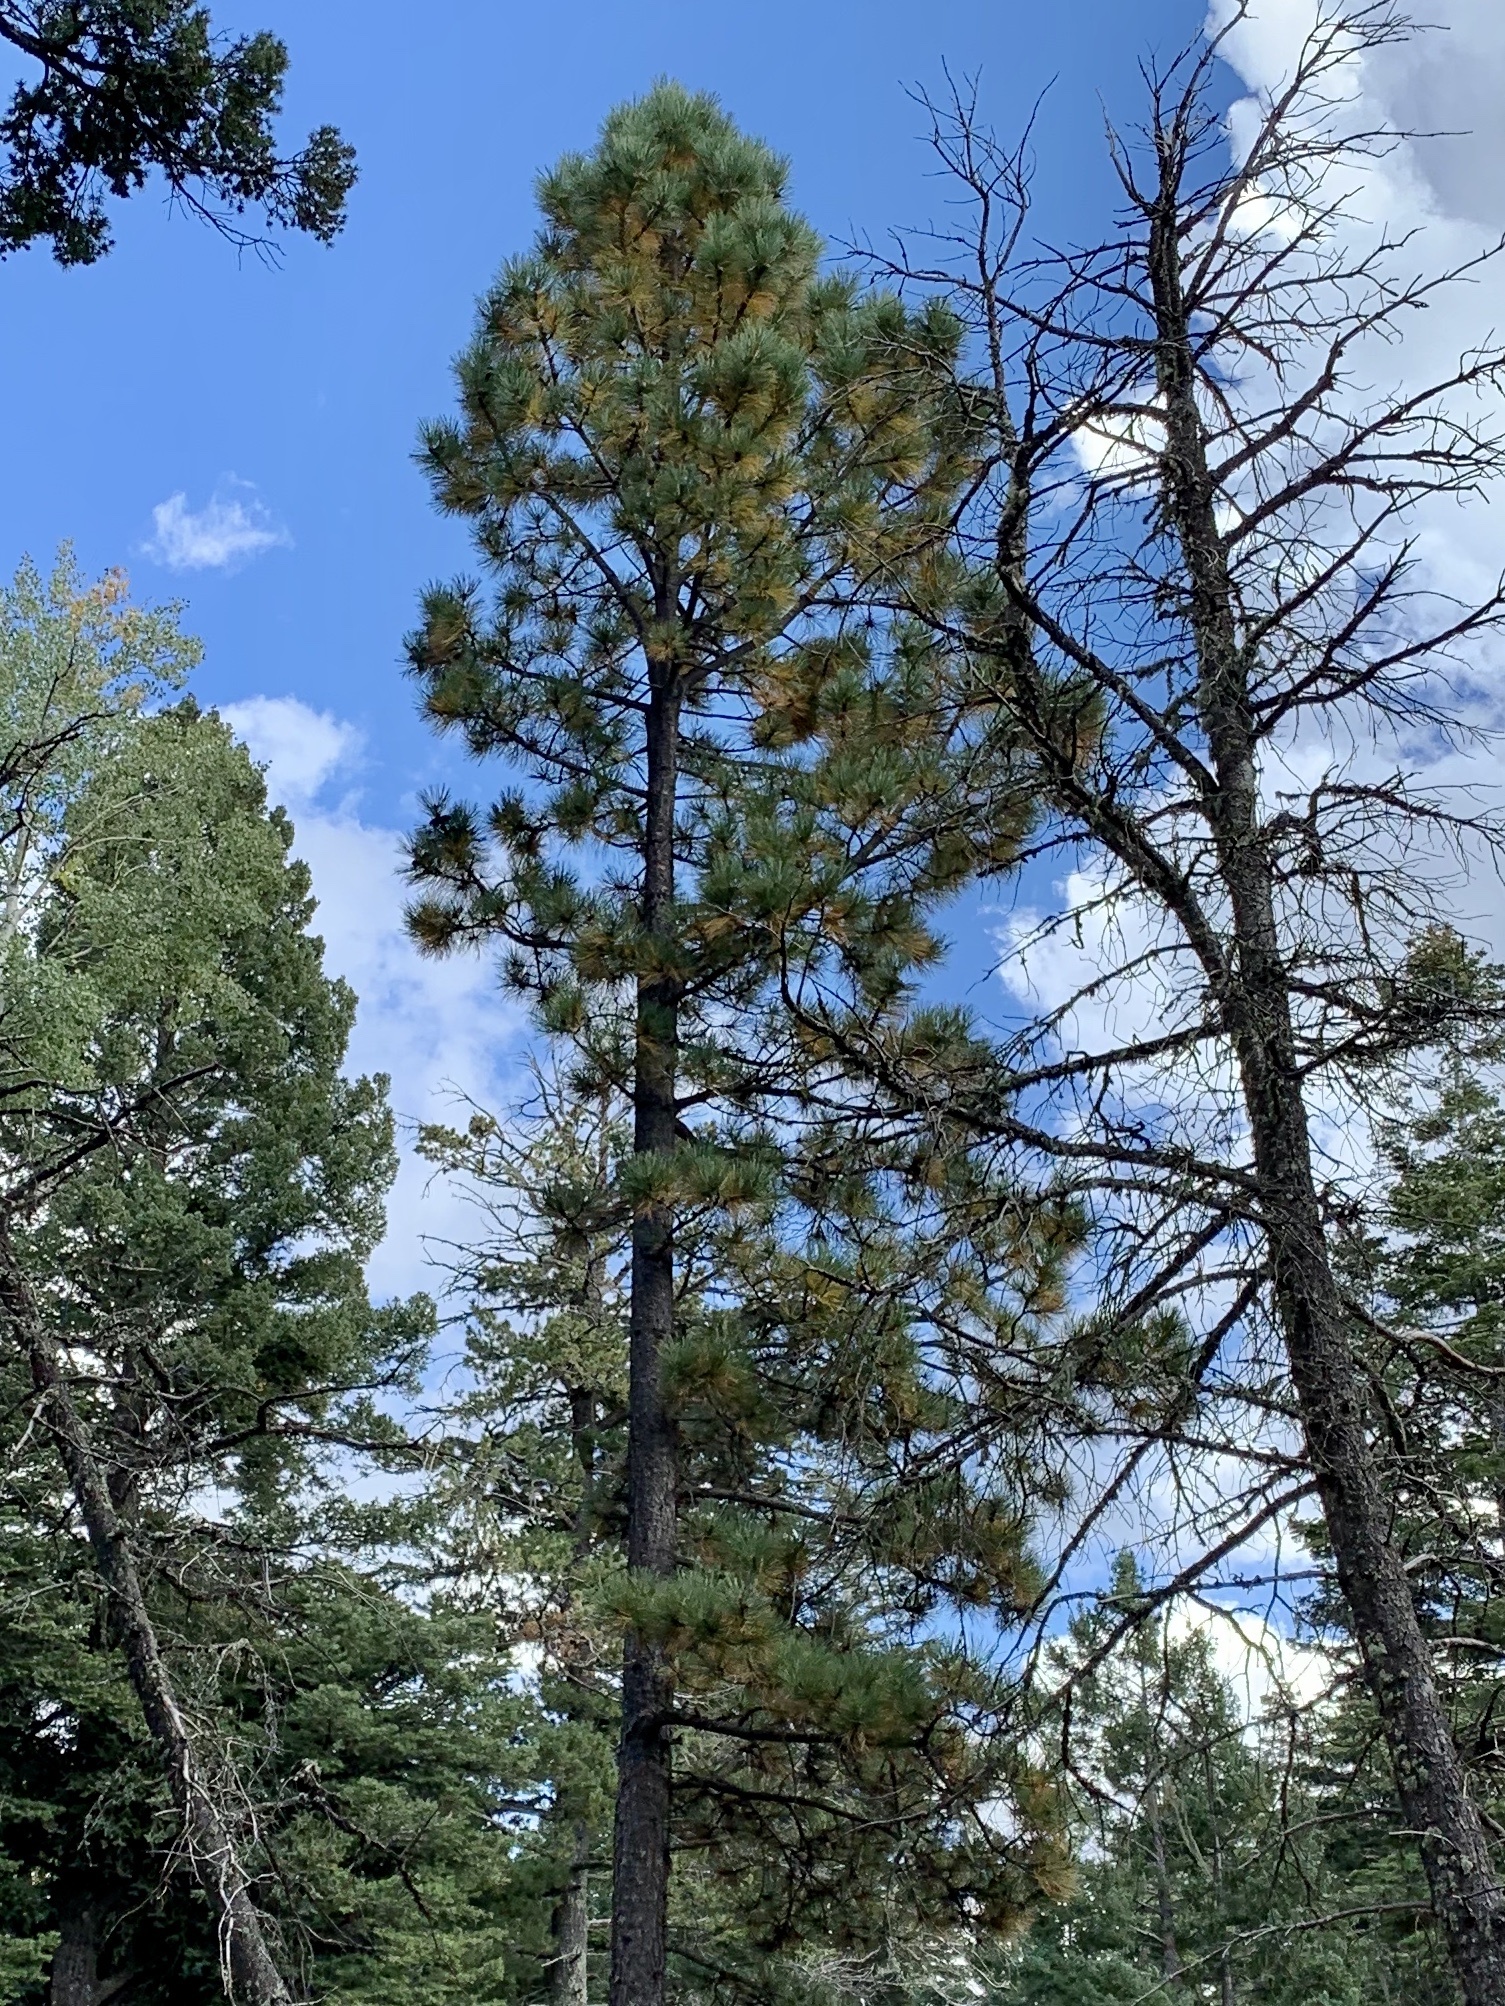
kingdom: Plantae
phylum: Tracheophyta
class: Pinopsida
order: Pinales
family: Pinaceae
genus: Pinus
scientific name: Pinus ponderosa
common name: Western yellow-pine
